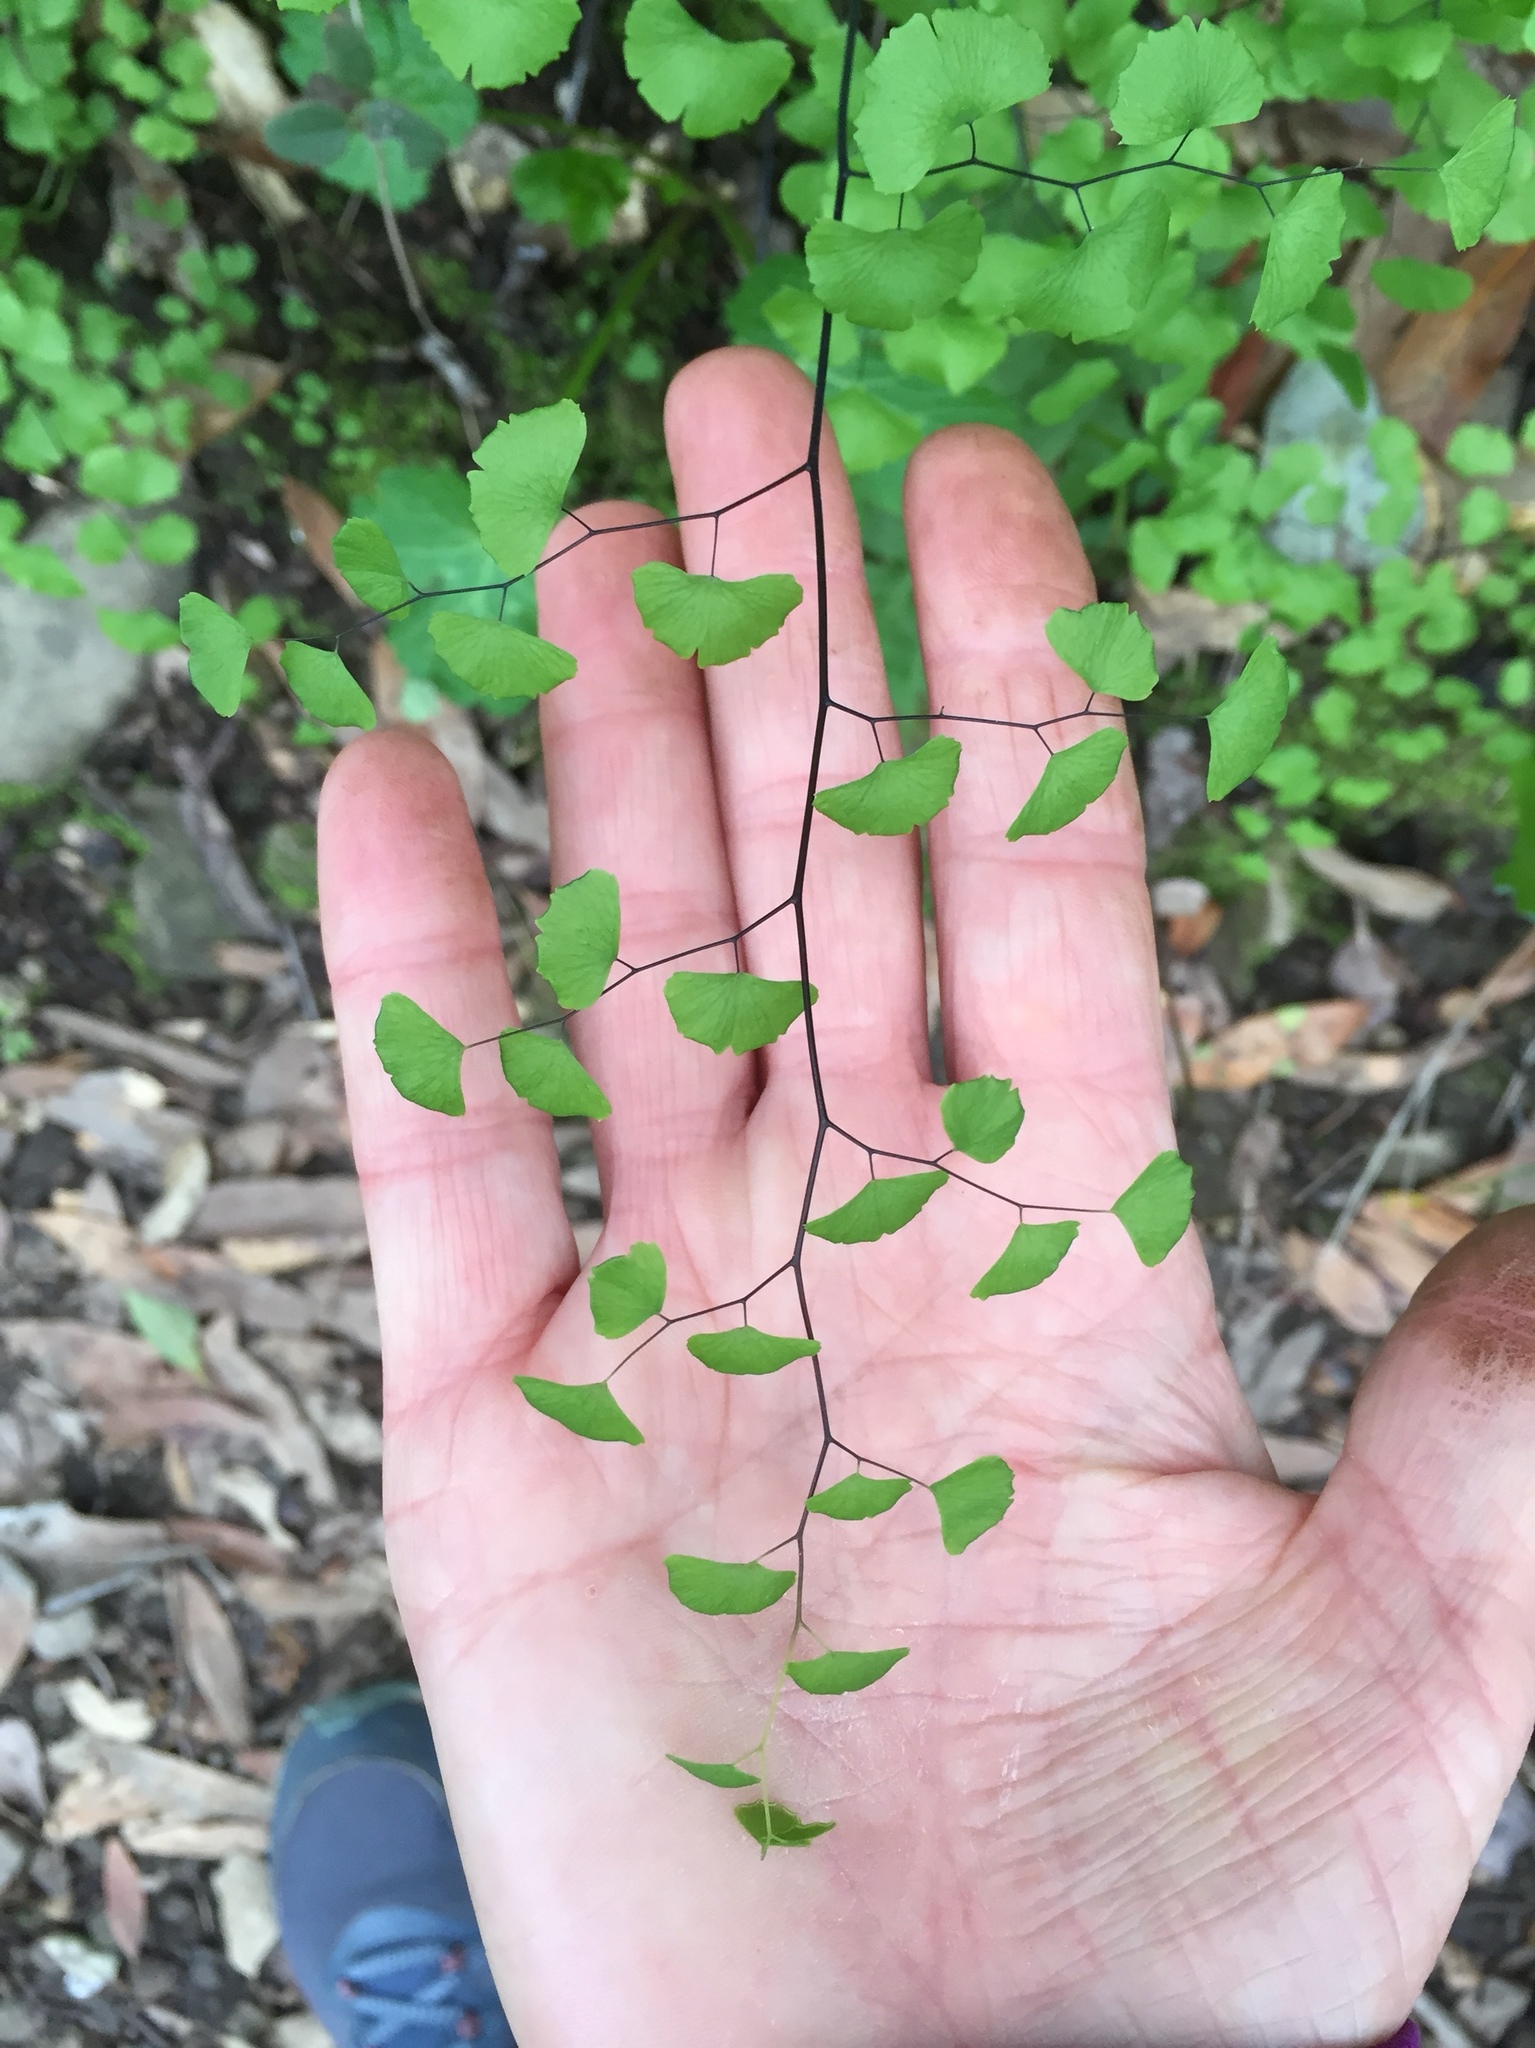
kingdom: Plantae
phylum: Tracheophyta
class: Polypodiopsida
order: Polypodiales
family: Pteridaceae
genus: Adiantum
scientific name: Adiantum jordanii
